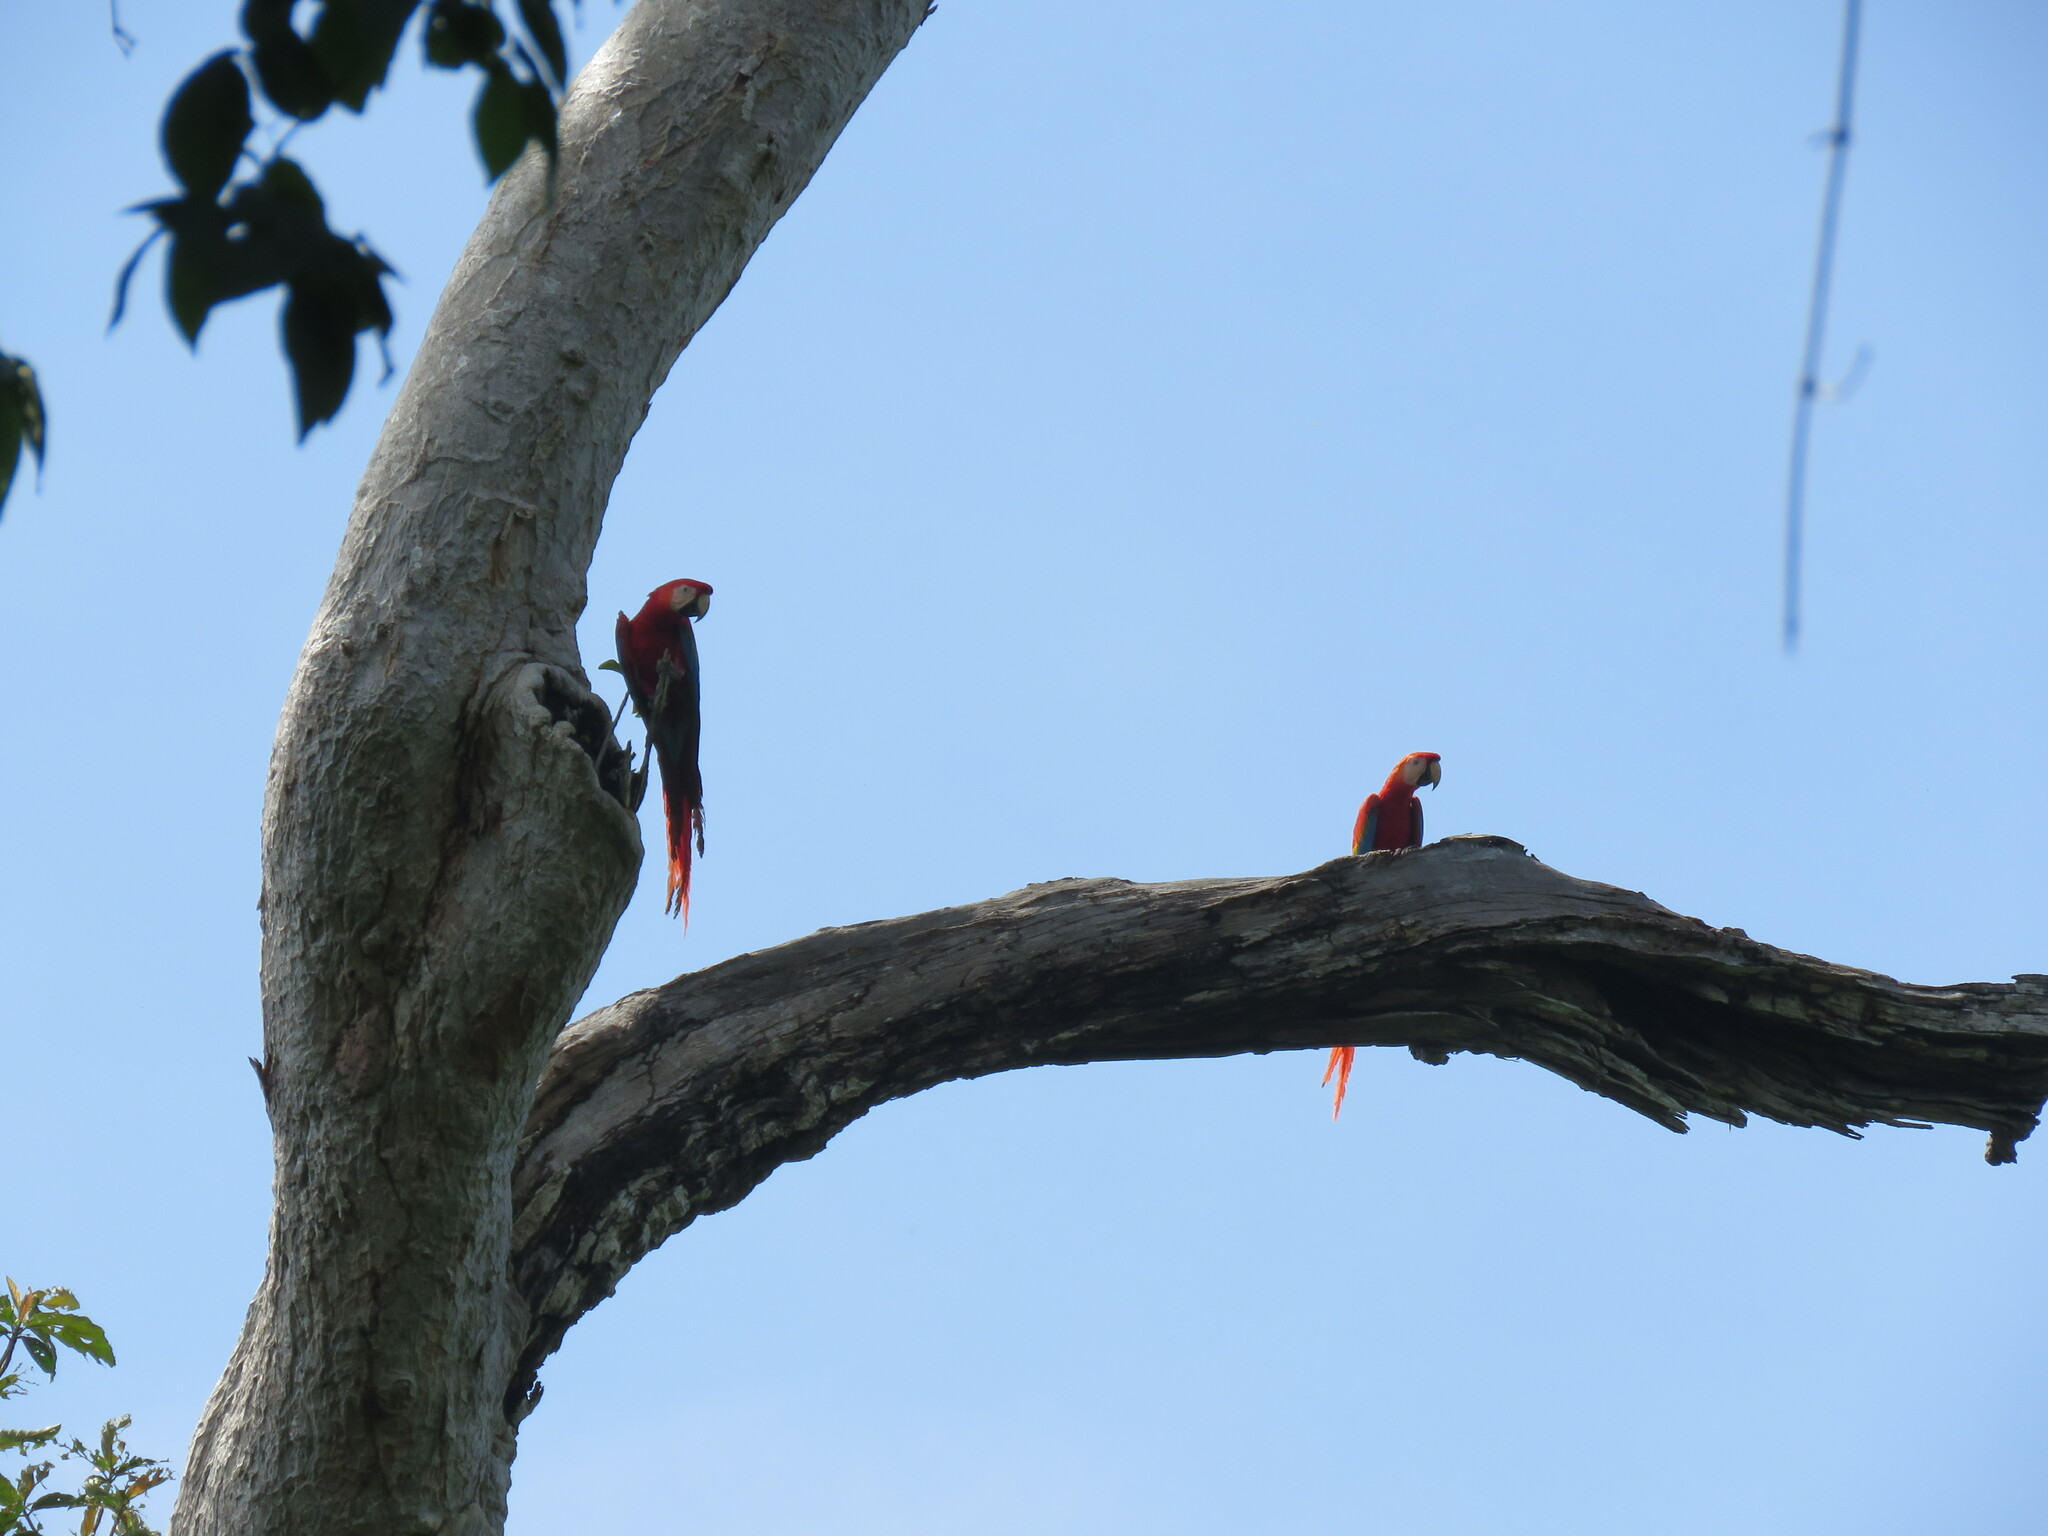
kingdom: Animalia
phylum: Chordata
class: Aves
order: Psittaciformes
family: Psittacidae
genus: Ara
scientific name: Ara macao
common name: Scarlet macaw
